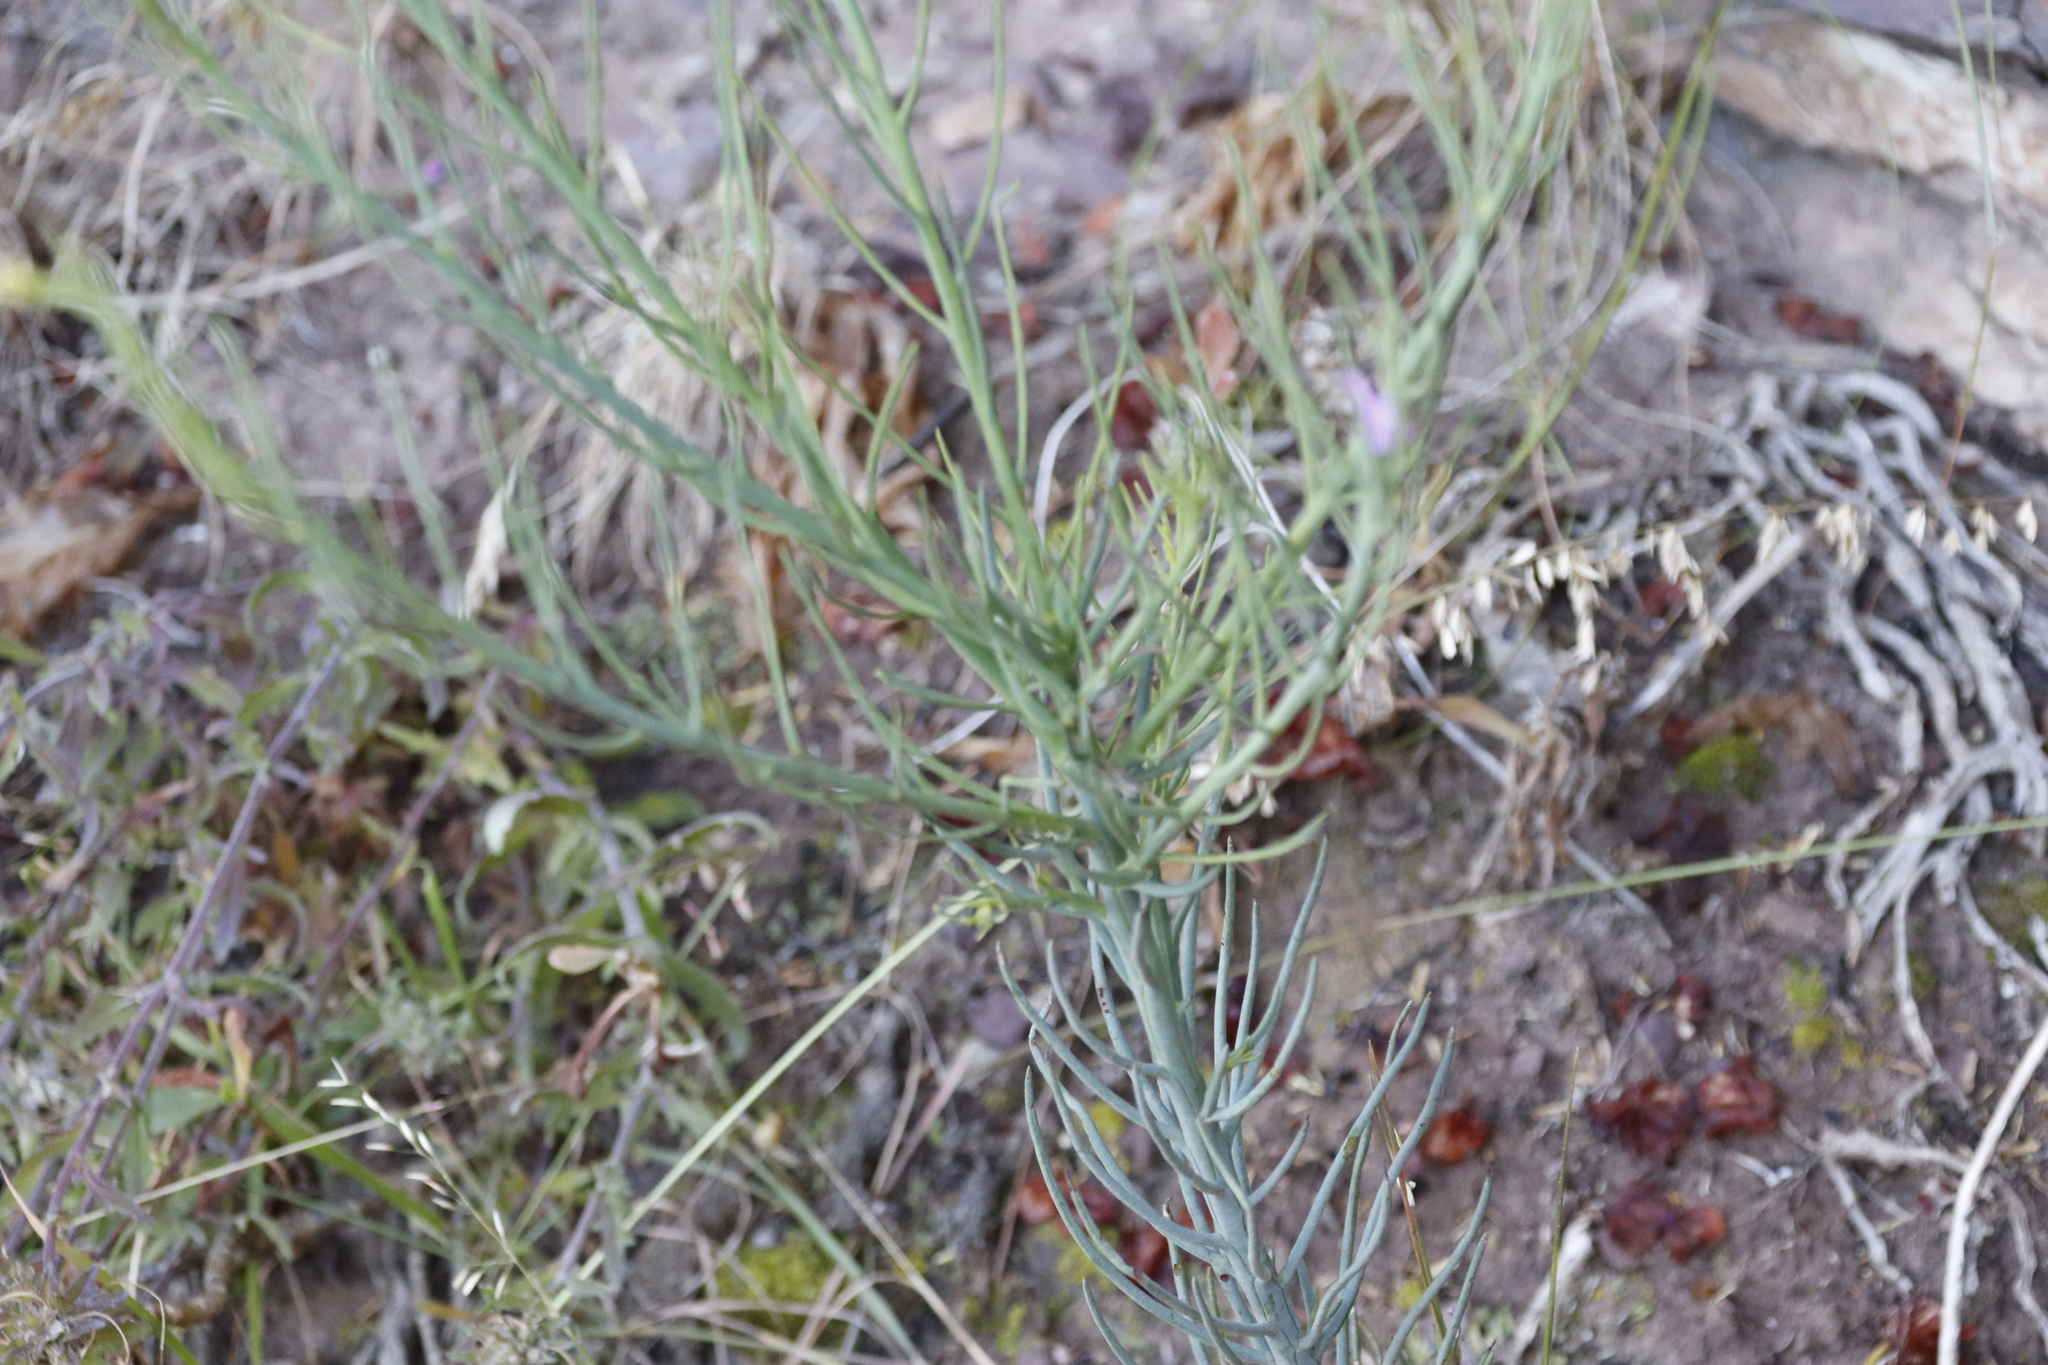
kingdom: Plantae
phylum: Tracheophyta
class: Magnoliopsida
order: Santalales
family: Thesiaceae
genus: Thesium
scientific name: Thesium strictum
